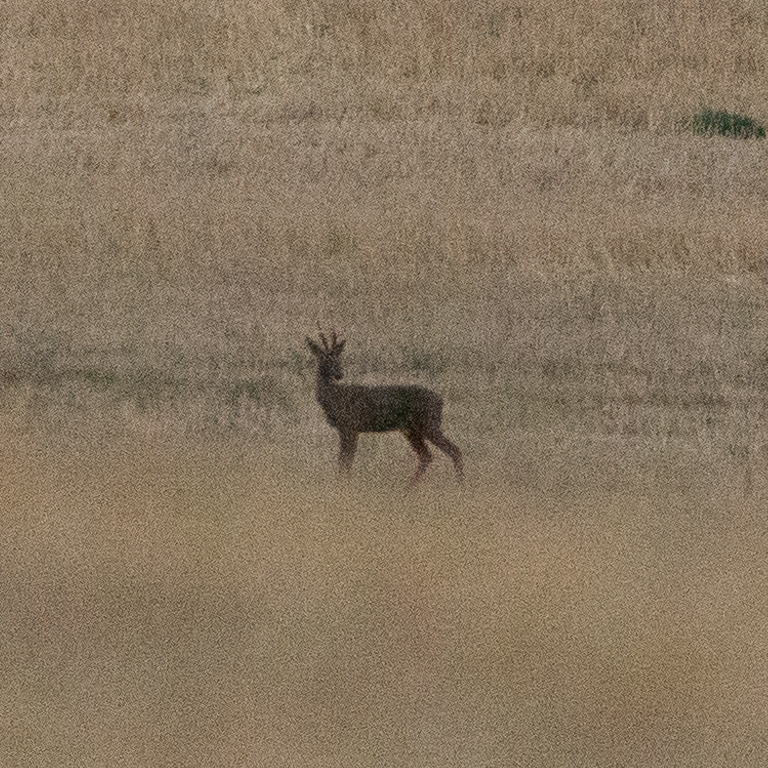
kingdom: Animalia
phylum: Chordata
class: Mammalia
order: Artiodactyla
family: Cervidae
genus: Capreolus
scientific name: Capreolus capreolus
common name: Western roe deer
